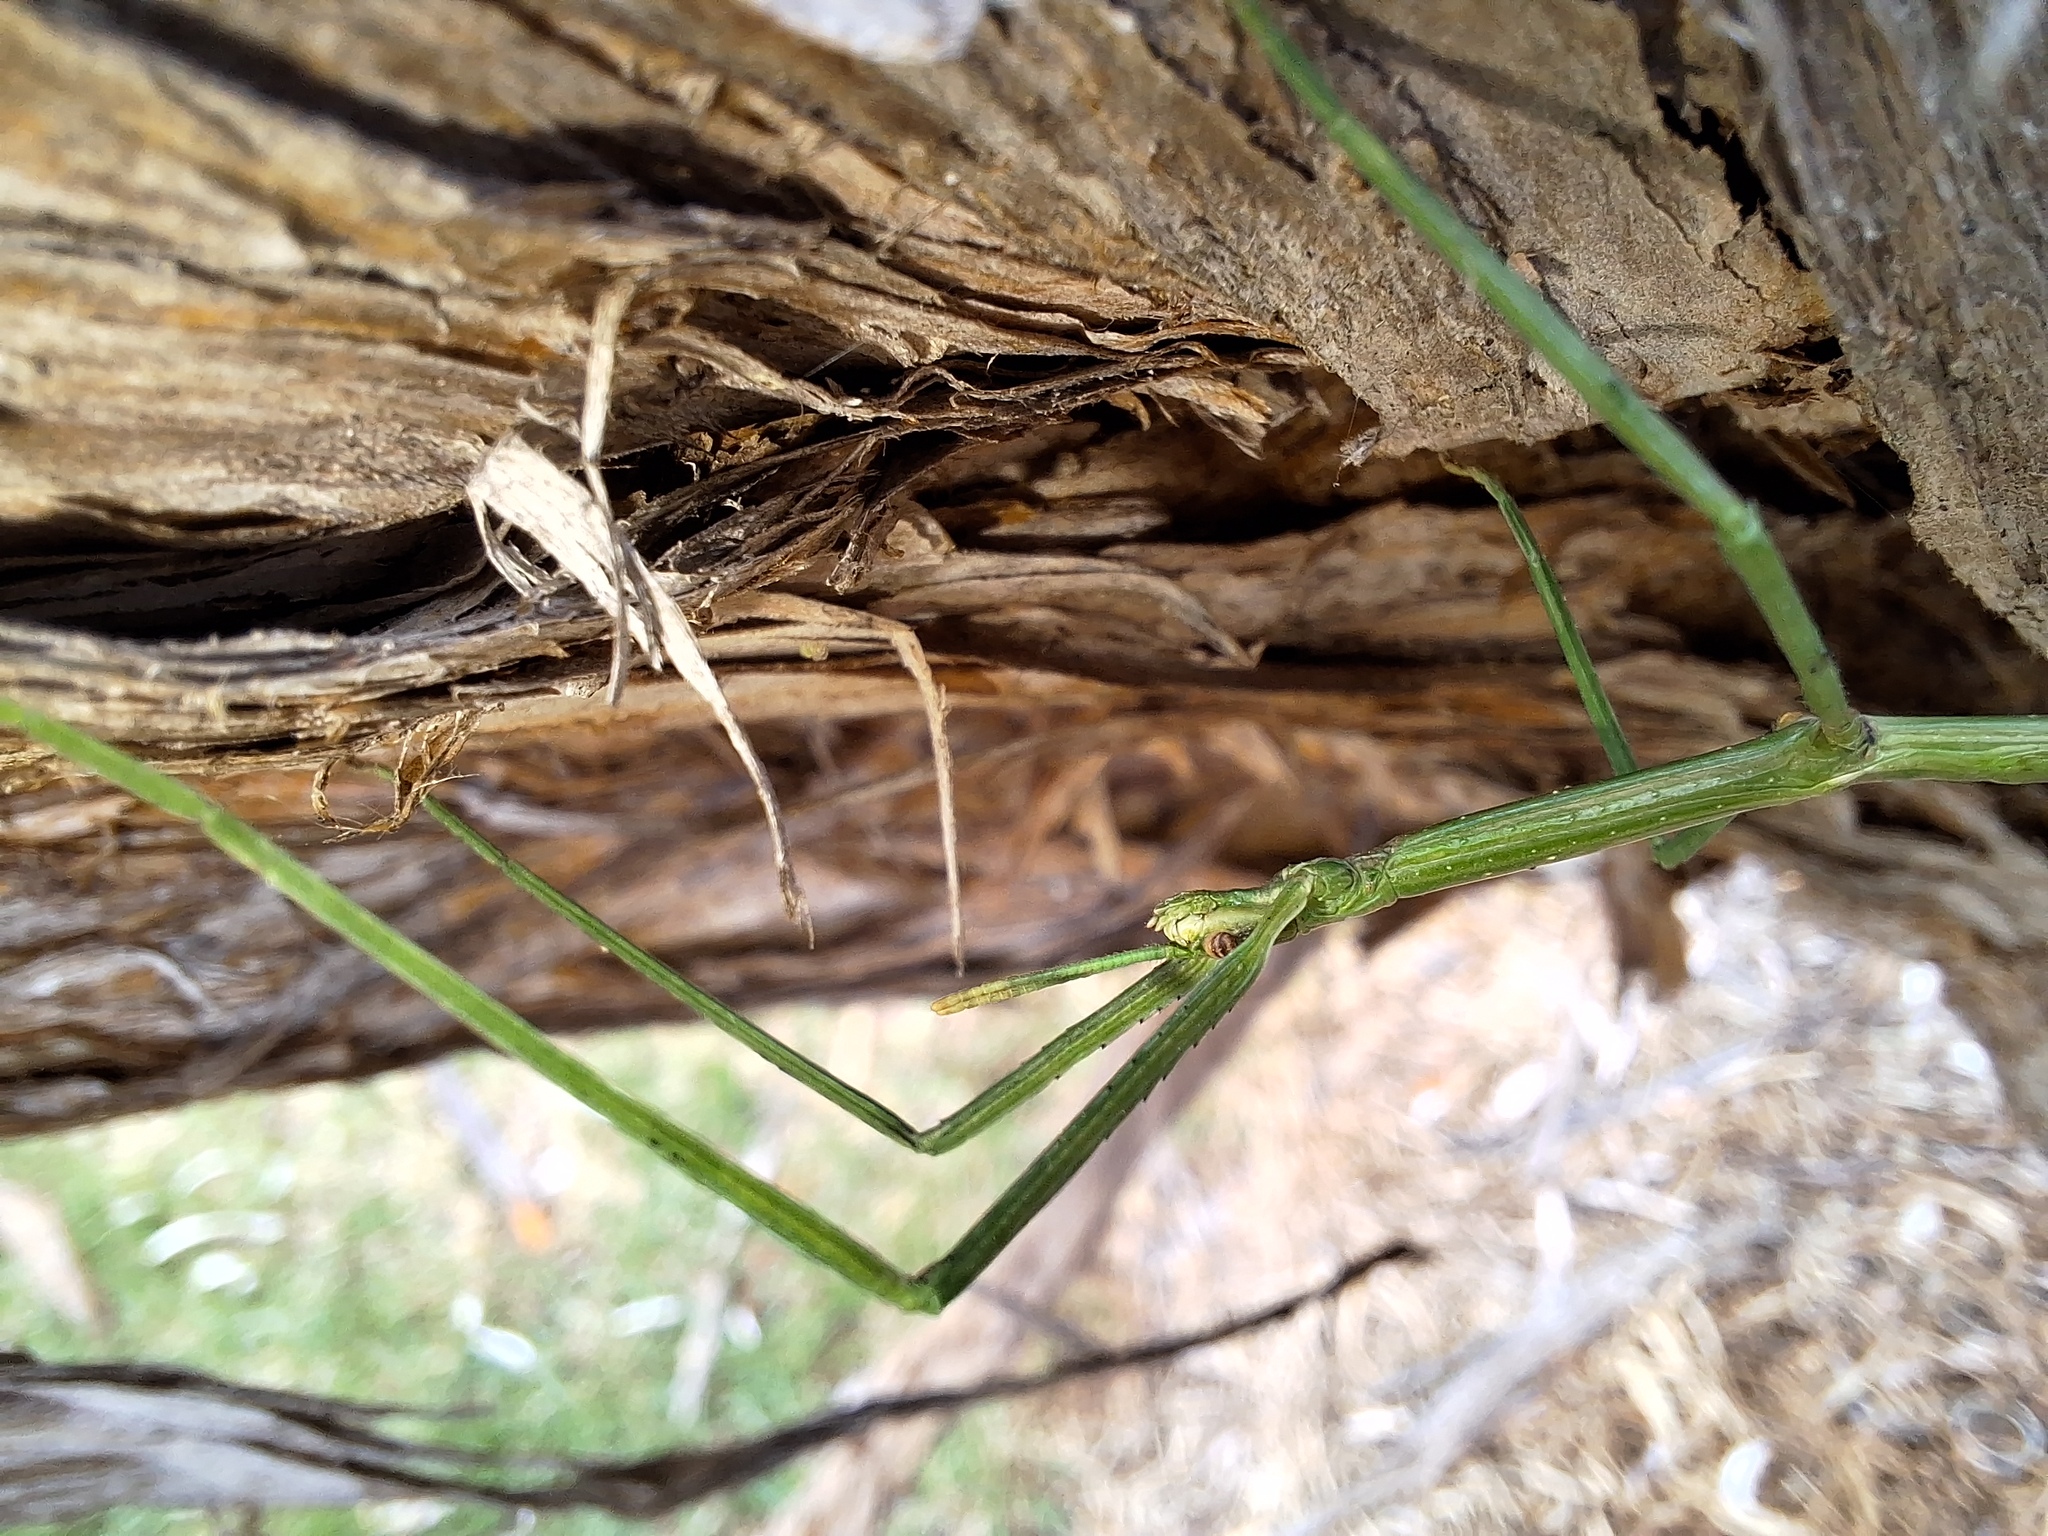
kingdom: Animalia
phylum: Arthropoda
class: Insecta
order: Phasmida
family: Phasmatidae
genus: Ctenomorpha
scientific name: Ctenomorpha marginipennis
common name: Margined-winged stick-insect
